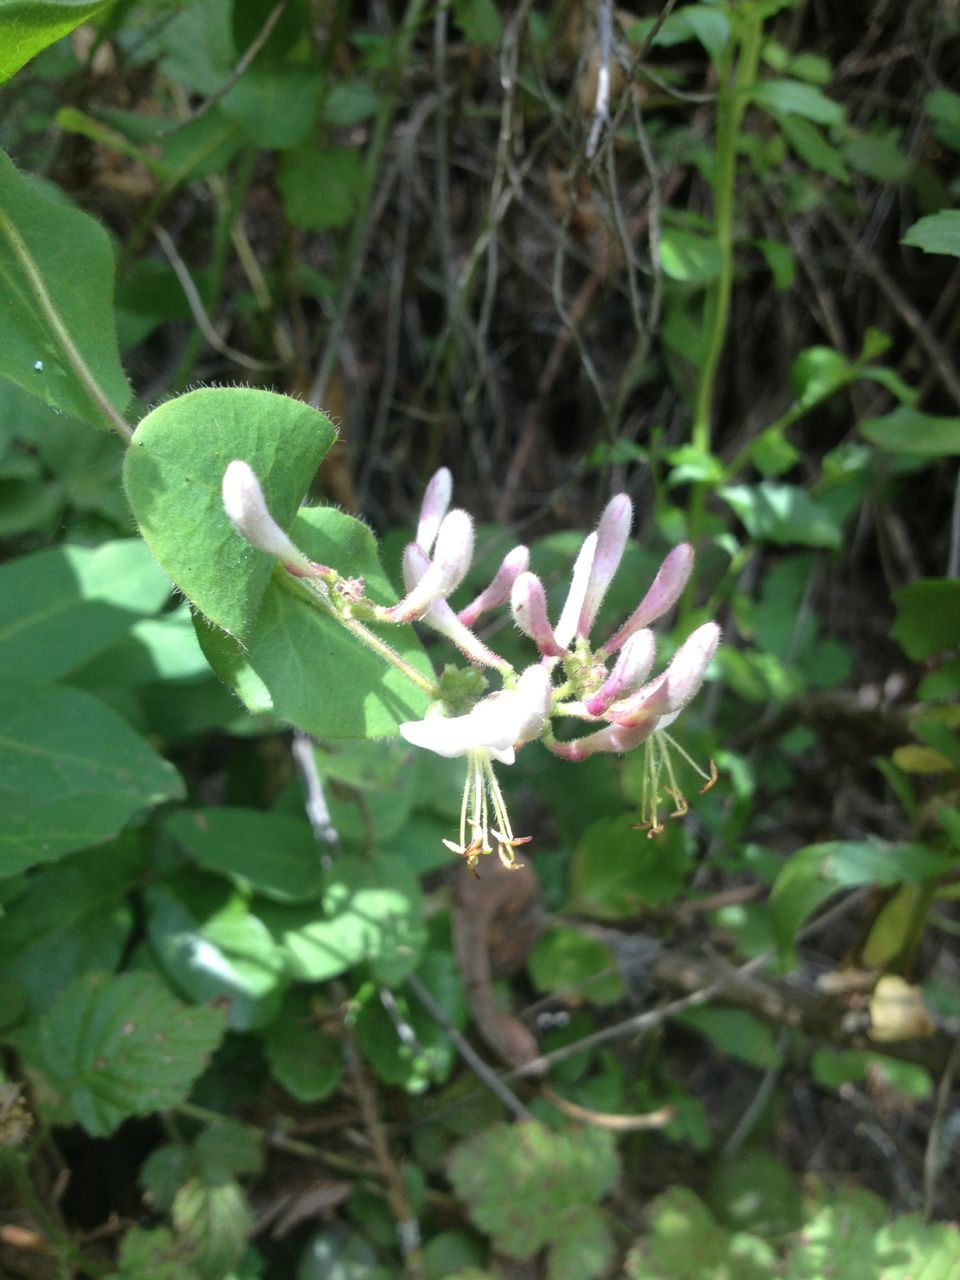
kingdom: Plantae
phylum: Tracheophyta
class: Magnoliopsida
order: Dipsacales
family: Caprifoliaceae
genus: Lonicera
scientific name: Lonicera hispidula
